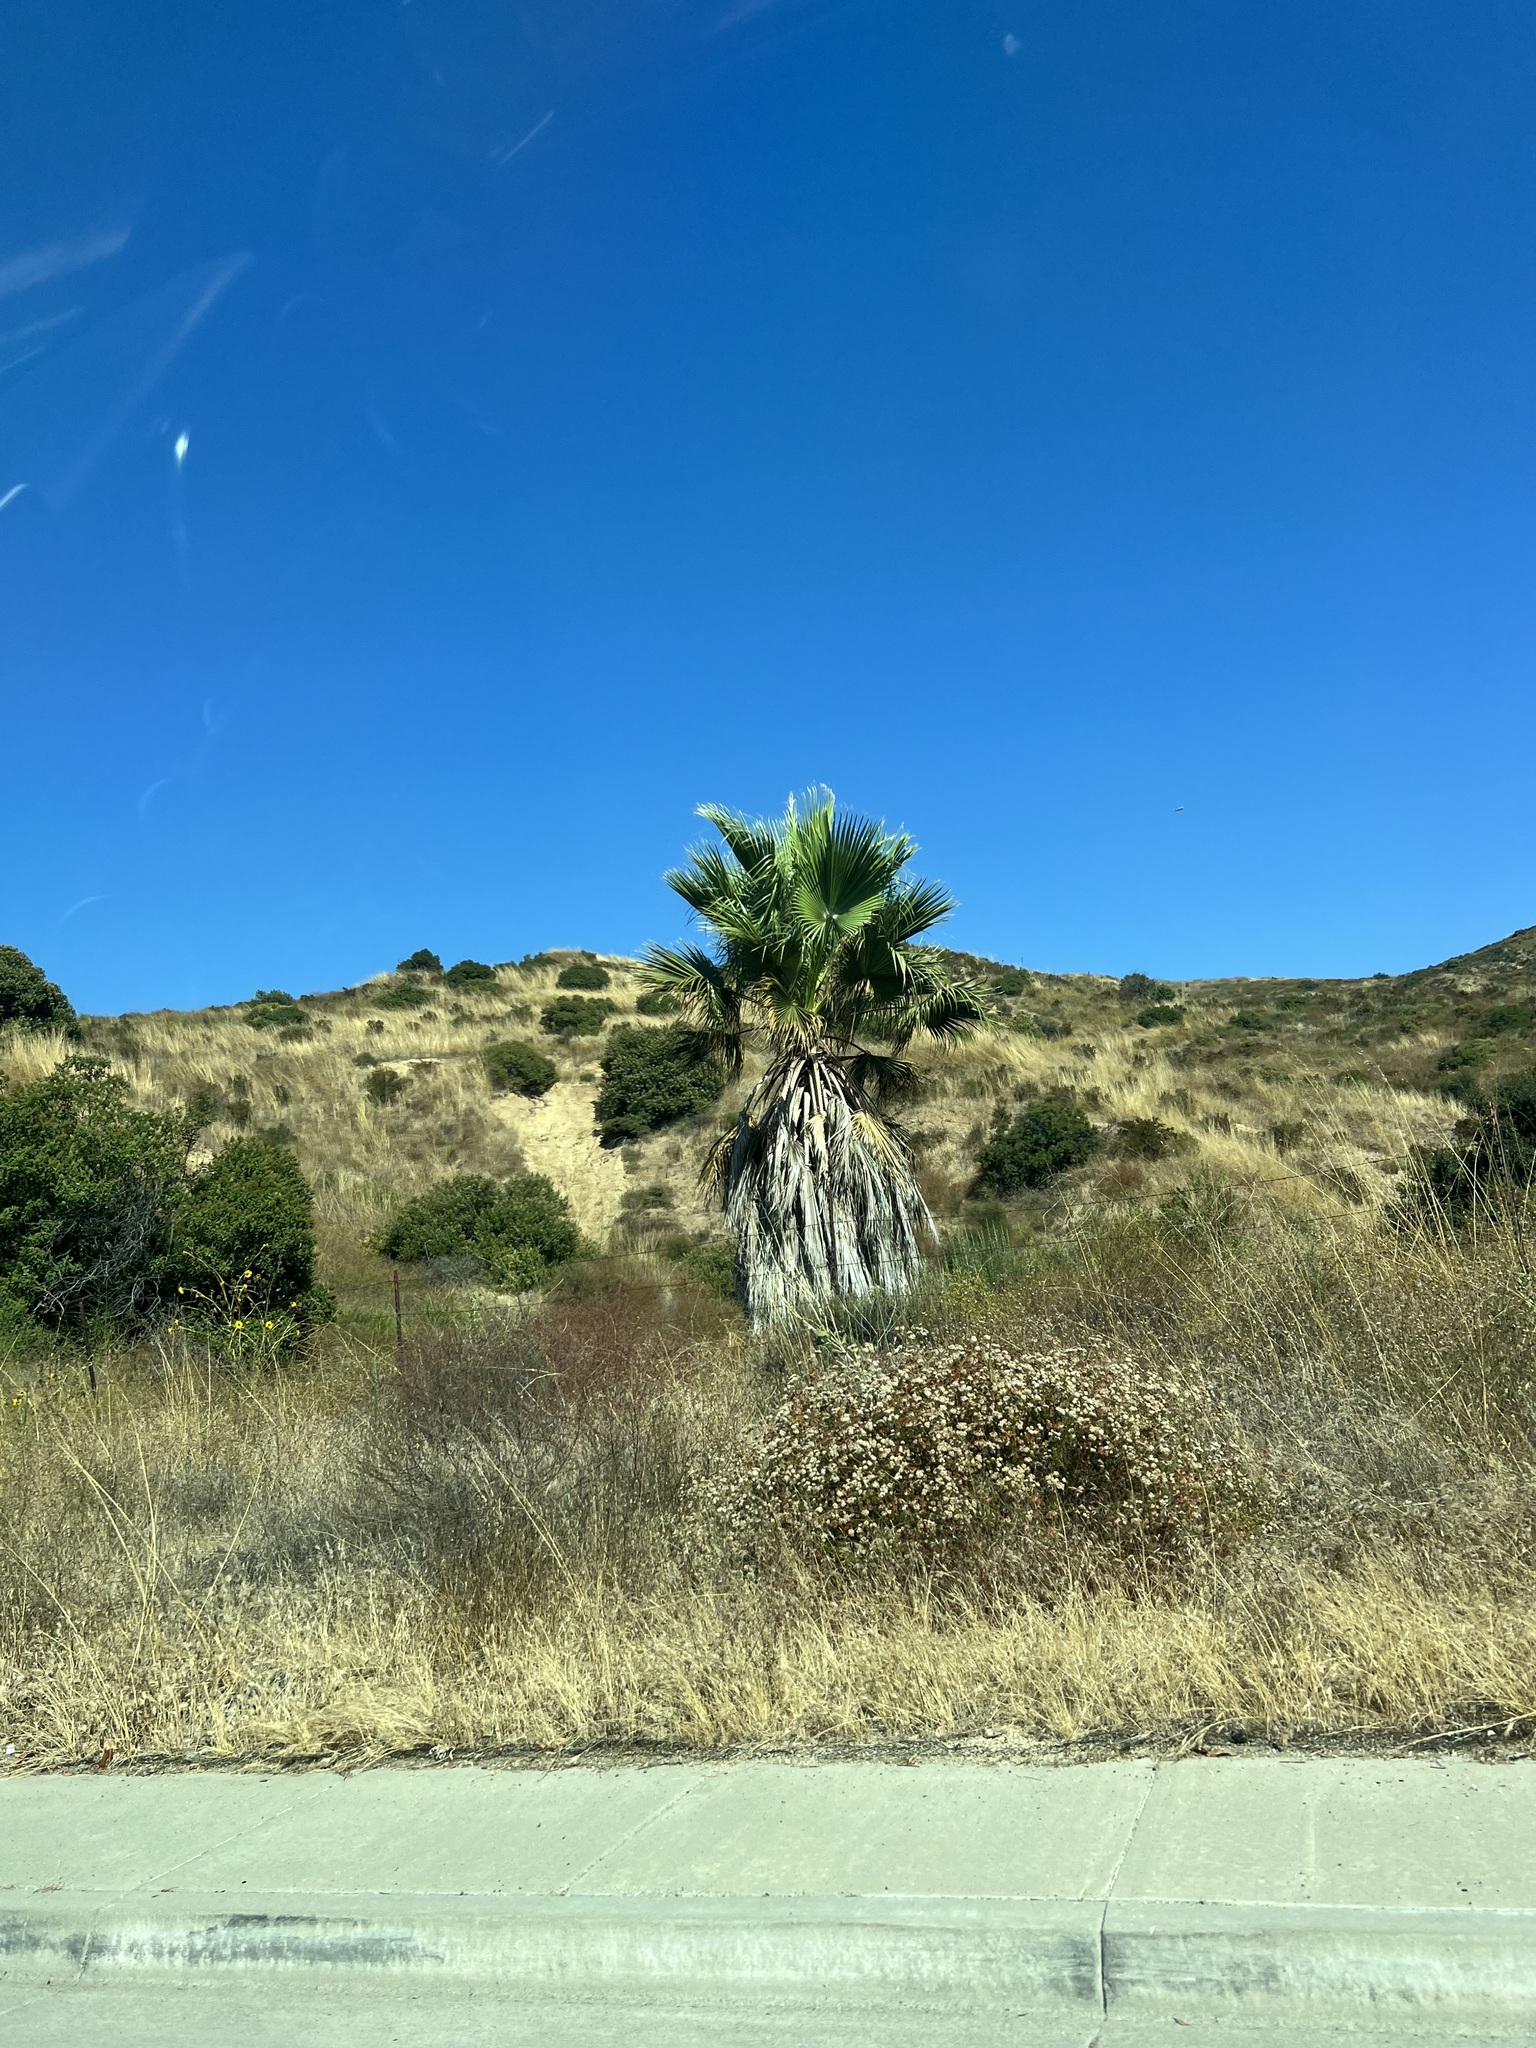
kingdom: Plantae
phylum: Tracheophyta
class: Liliopsida
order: Arecales
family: Arecaceae
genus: Washingtonia
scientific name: Washingtonia robusta
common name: Mexican fan palm
